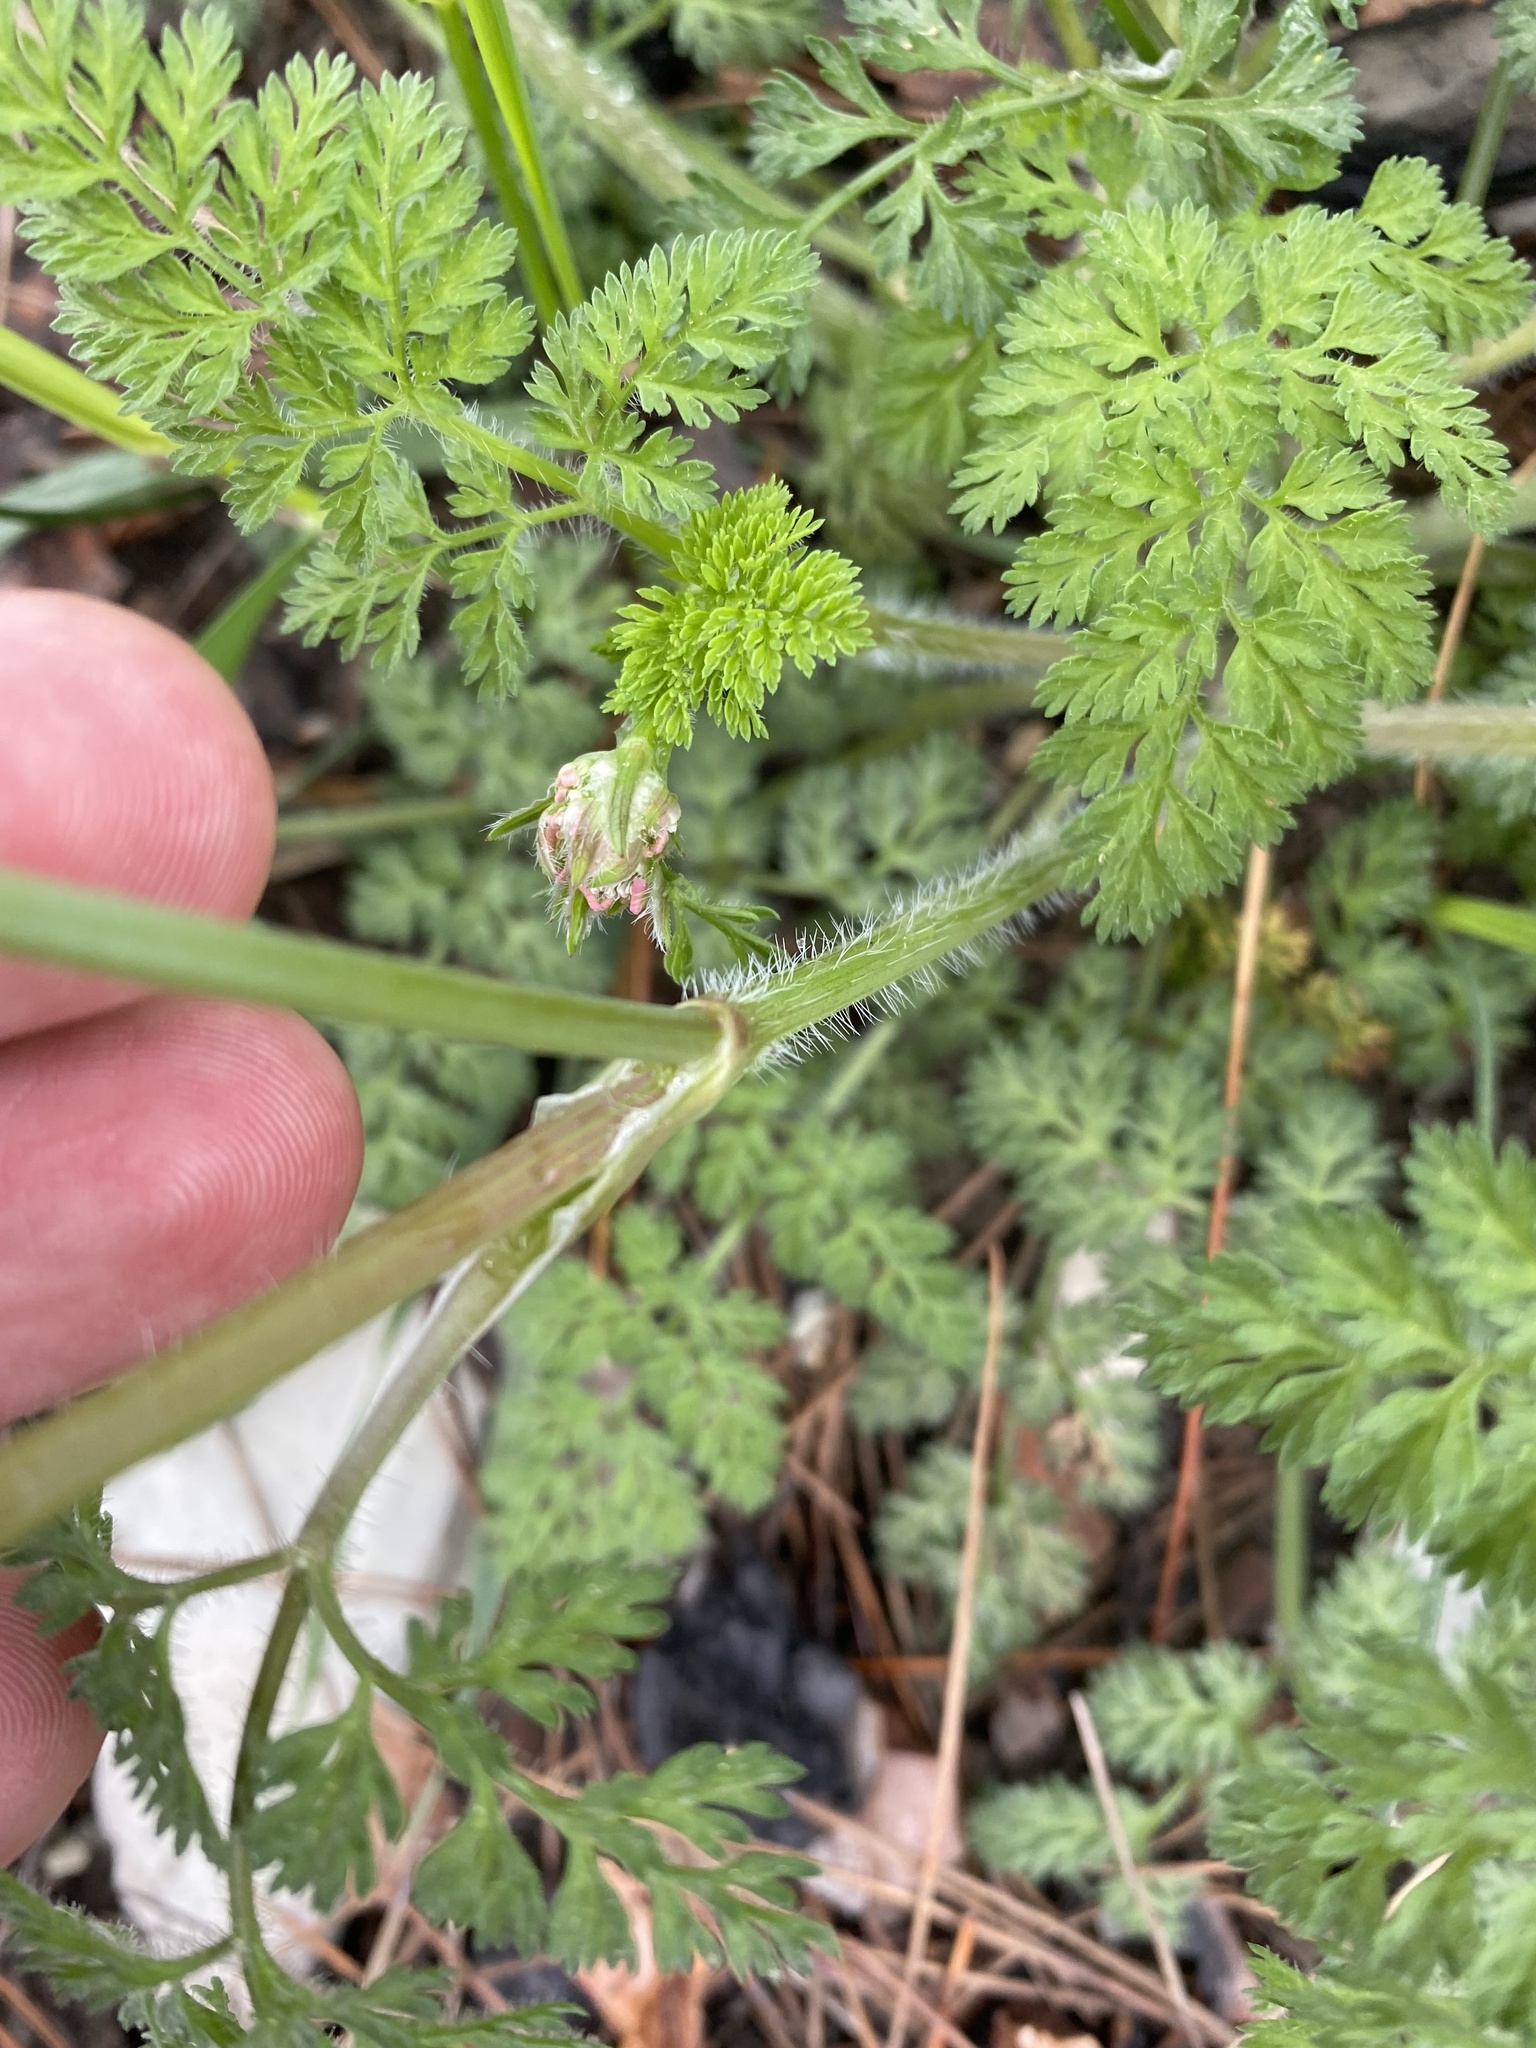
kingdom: Plantae
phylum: Tracheophyta
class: Magnoliopsida
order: Apiales
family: Apiaceae
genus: Orlaya
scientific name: Orlaya daucoides
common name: Flat-fruit orlaya
